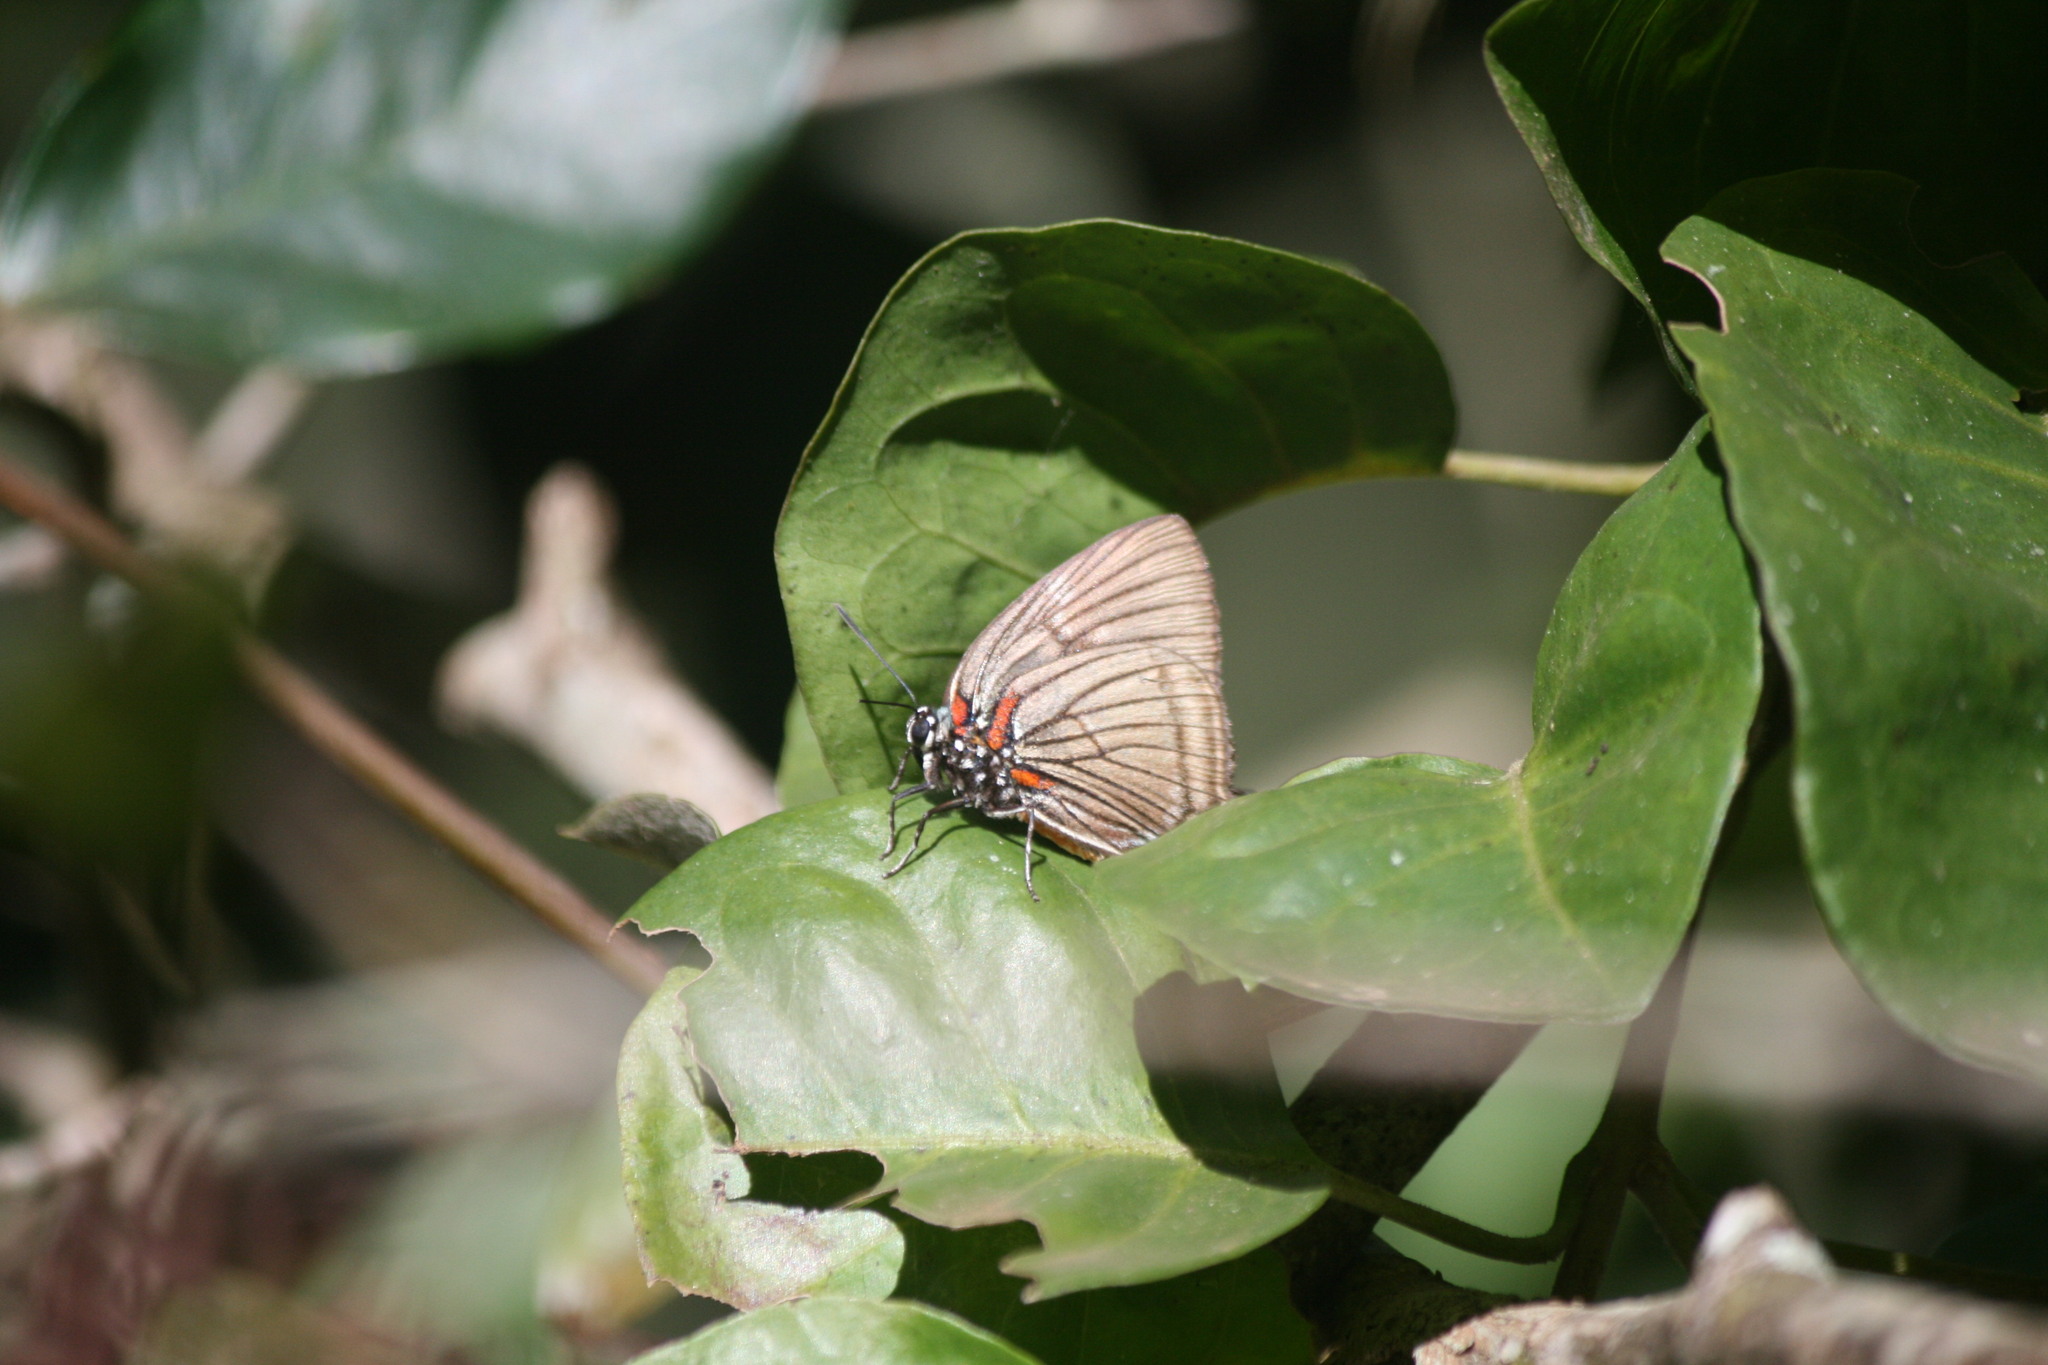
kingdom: Animalia
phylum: Arthropoda
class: Insecta
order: Lepidoptera
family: Lycaenidae
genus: Atlides
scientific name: Atlides
